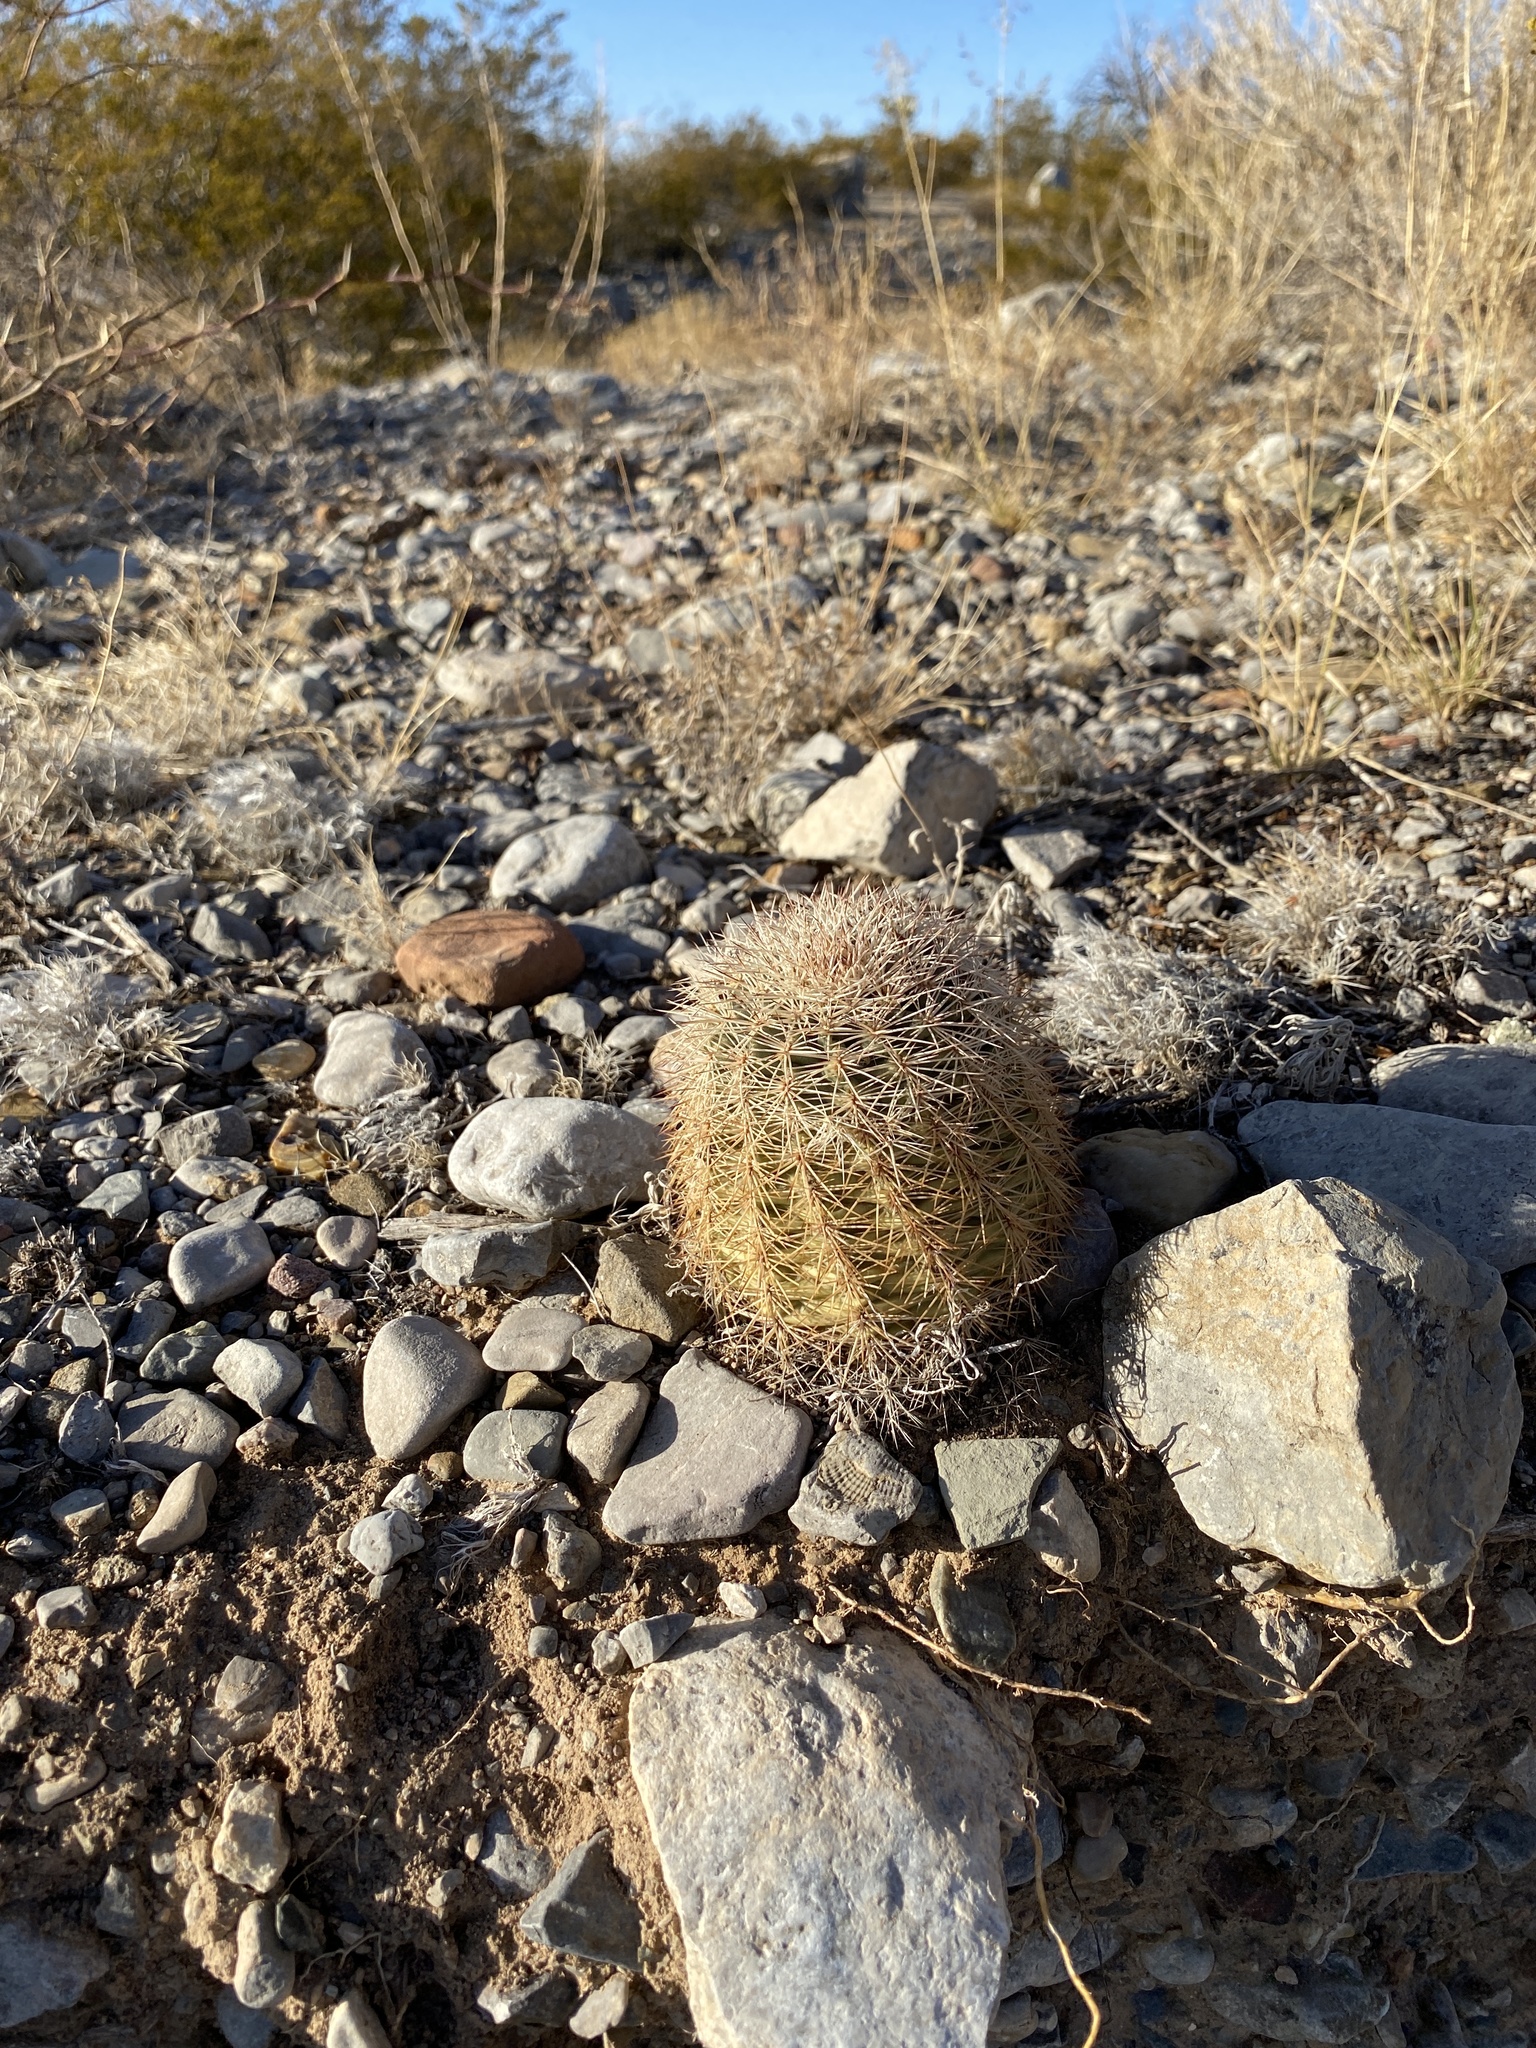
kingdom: Plantae
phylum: Tracheophyta
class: Magnoliopsida
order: Caryophyllales
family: Cactaceae
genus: Echinocereus
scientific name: Echinocereus dasyacanthus
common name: Spiny hedgehog cactus
